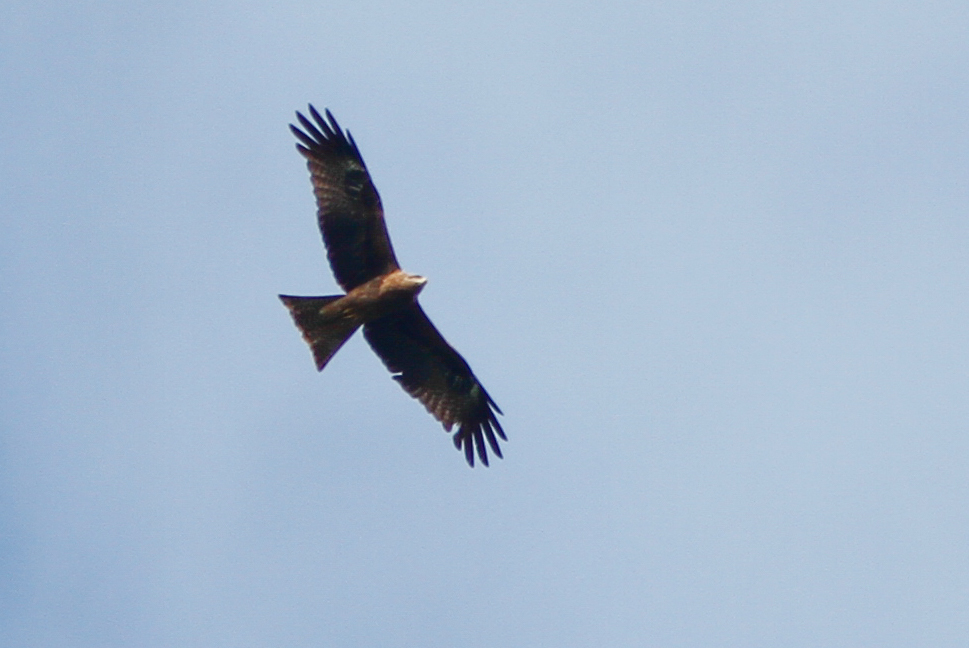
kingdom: Animalia
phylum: Chordata
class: Aves
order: Accipitriformes
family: Accipitridae
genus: Milvus
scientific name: Milvus migrans
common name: Black kite
